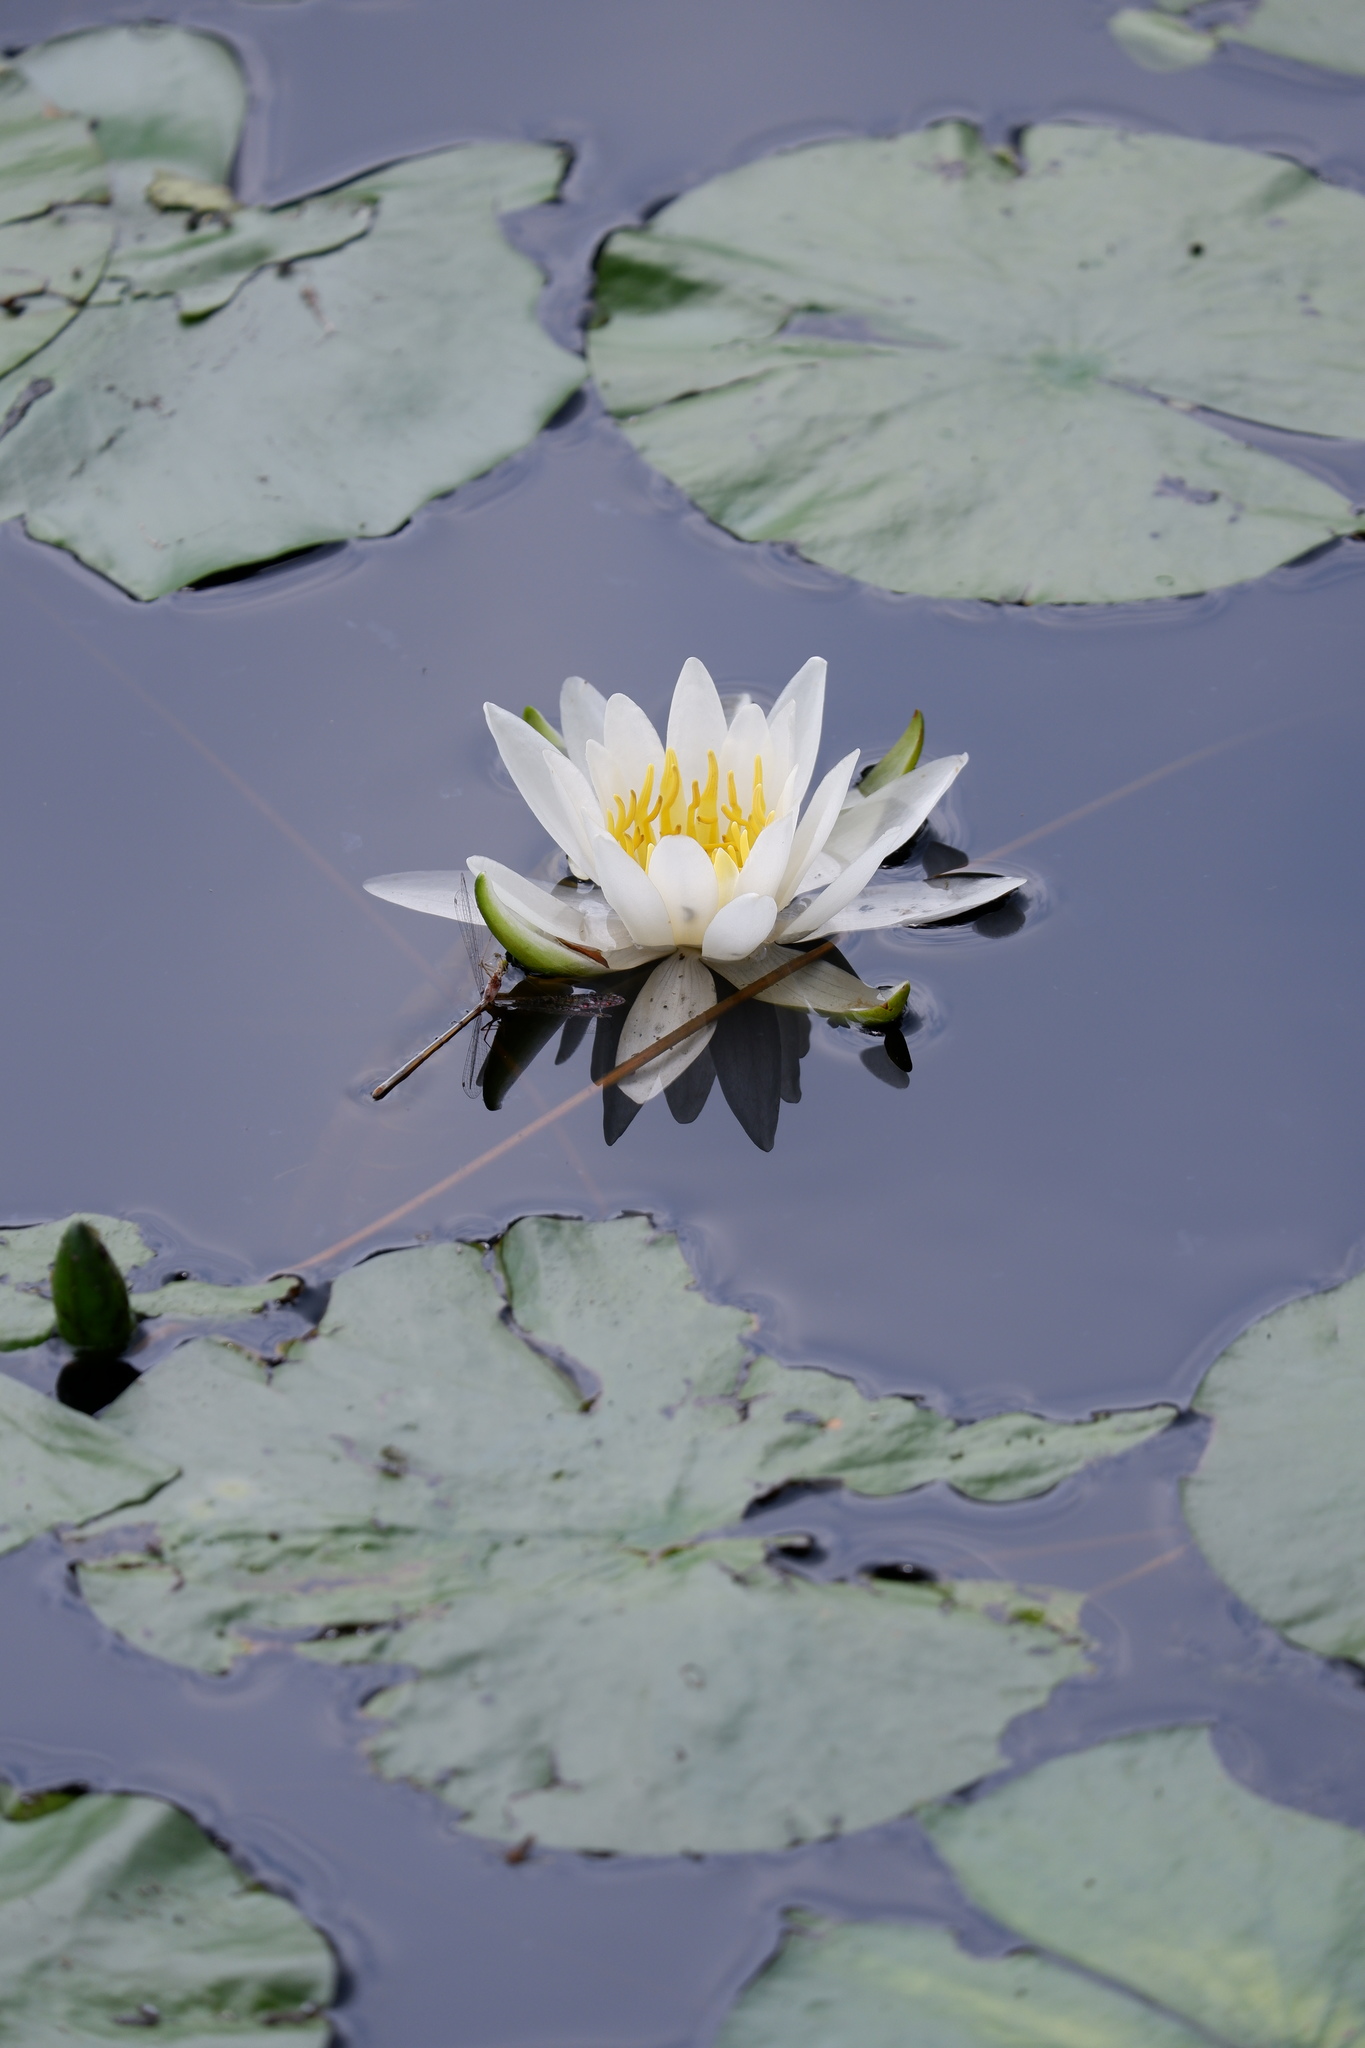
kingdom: Plantae
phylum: Tracheophyta
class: Magnoliopsida
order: Nymphaeales
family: Nymphaeaceae
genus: Nymphaea
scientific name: Nymphaea odorata
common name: Fragrant water-lily
